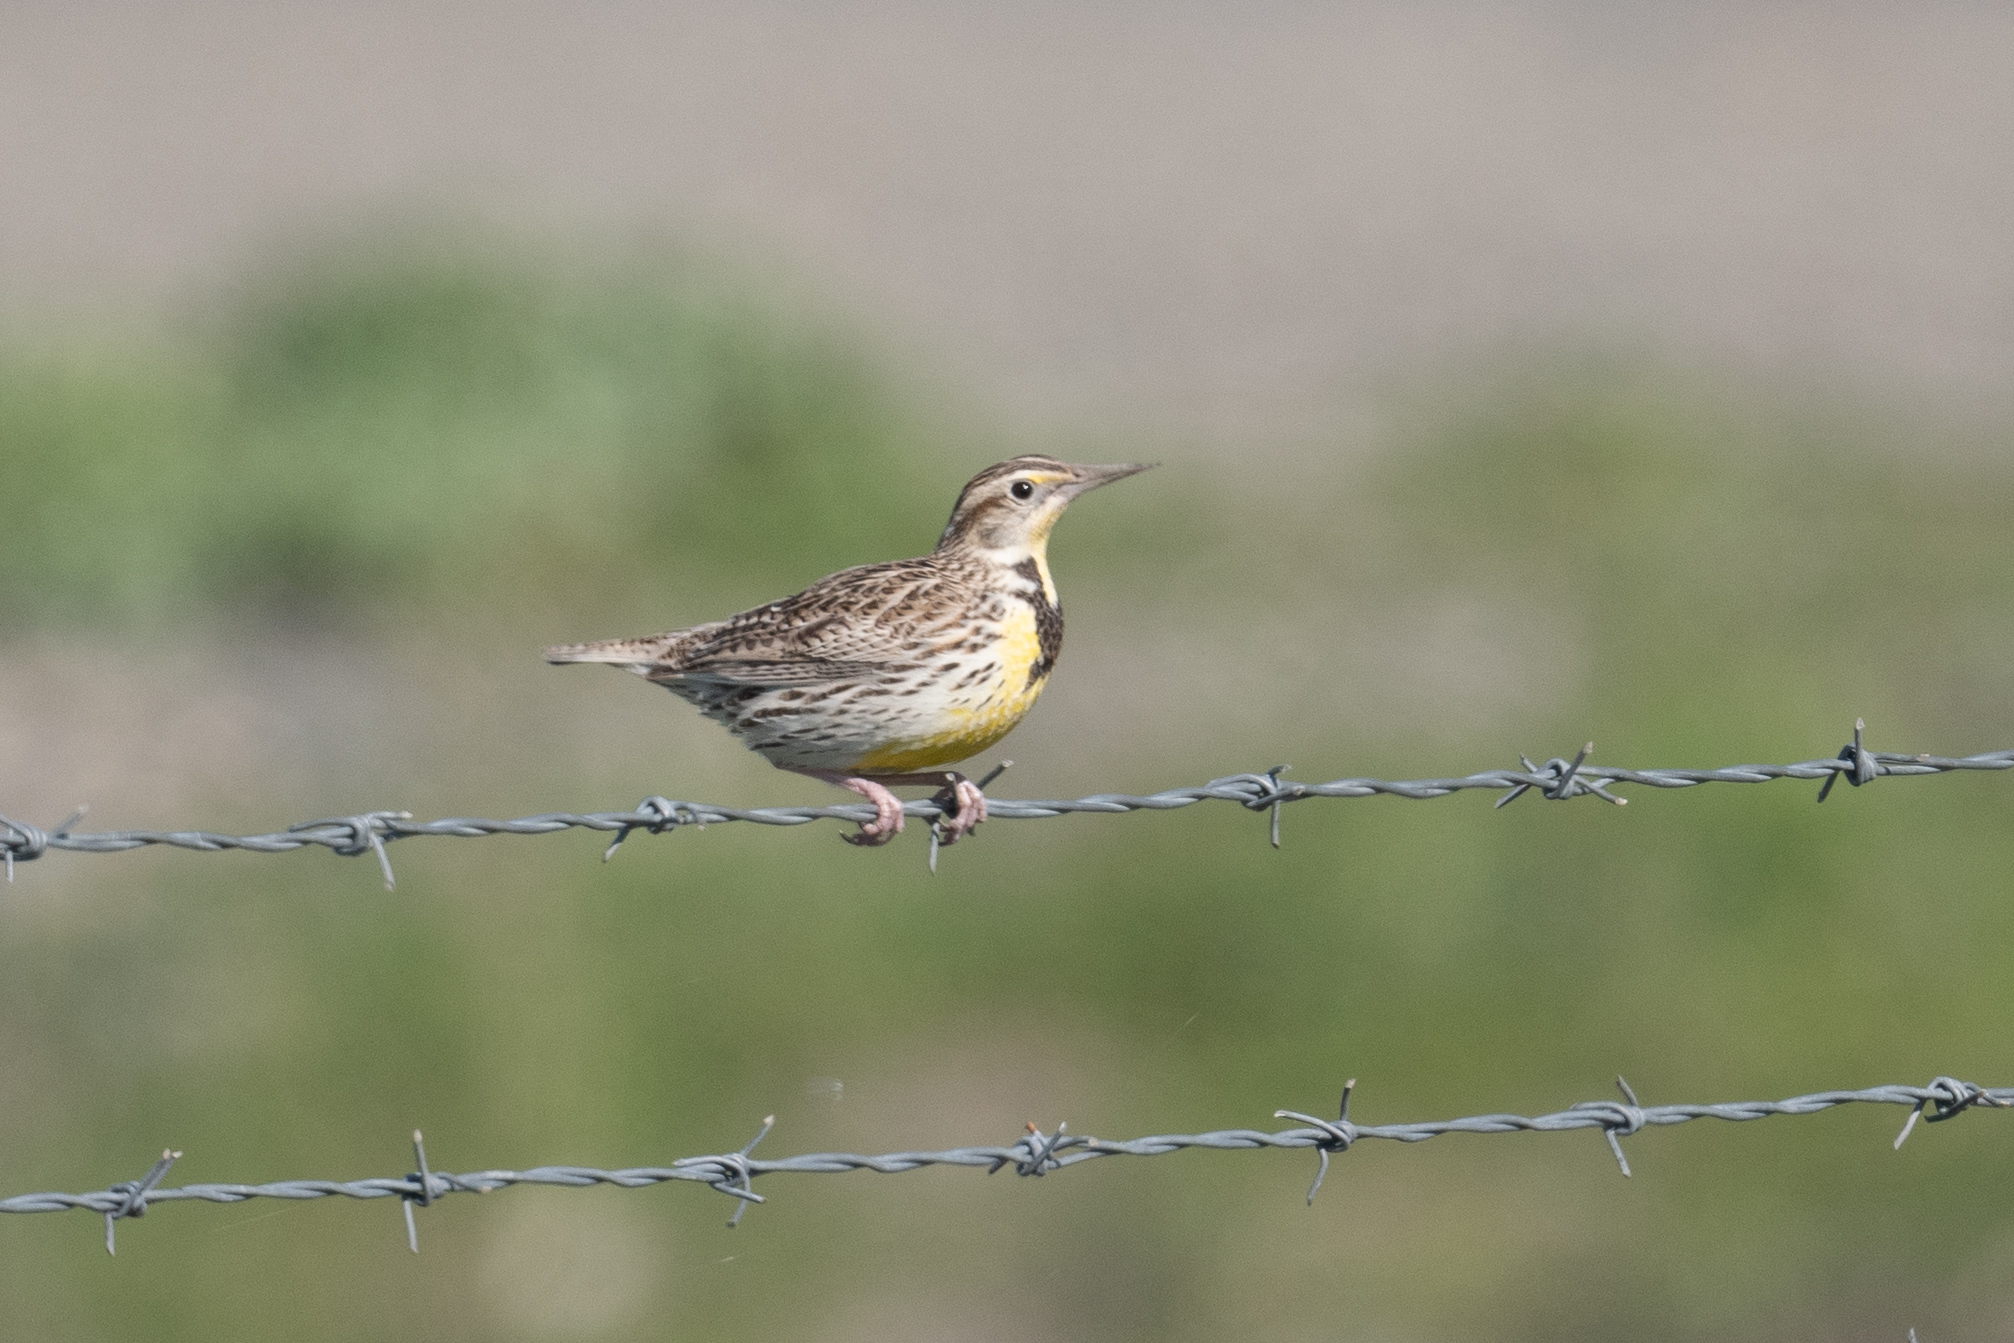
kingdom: Animalia
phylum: Chordata
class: Aves
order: Passeriformes
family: Icteridae
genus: Sturnella
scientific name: Sturnella neglecta
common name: Western meadowlark
